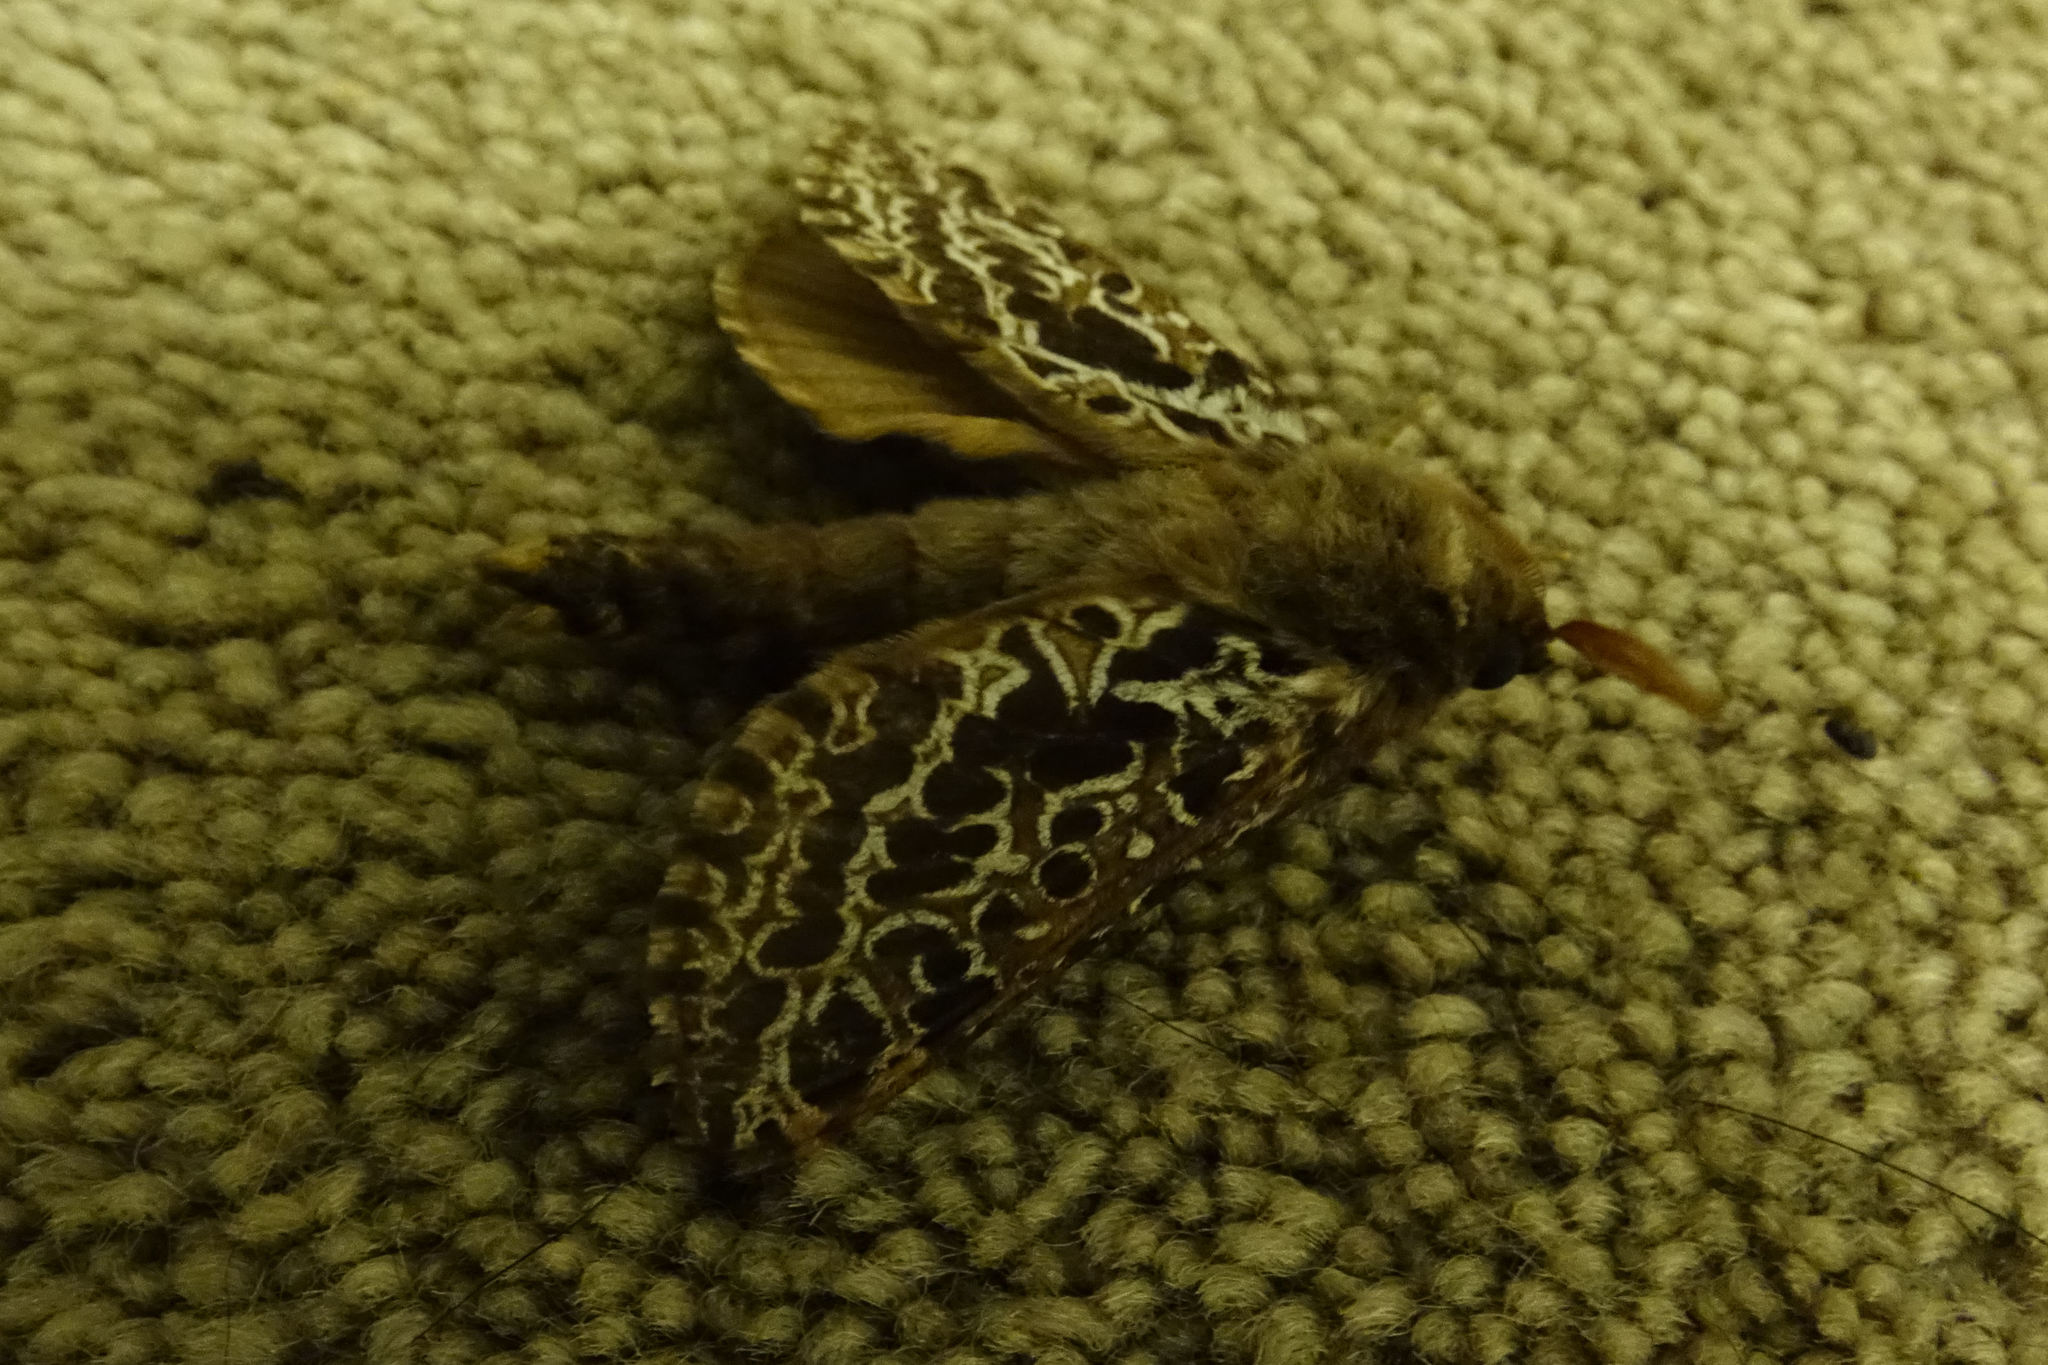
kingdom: Animalia
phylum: Arthropoda
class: Insecta
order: Lepidoptera
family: Hepialidae
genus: Aoraia
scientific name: Aoraia rufivena
